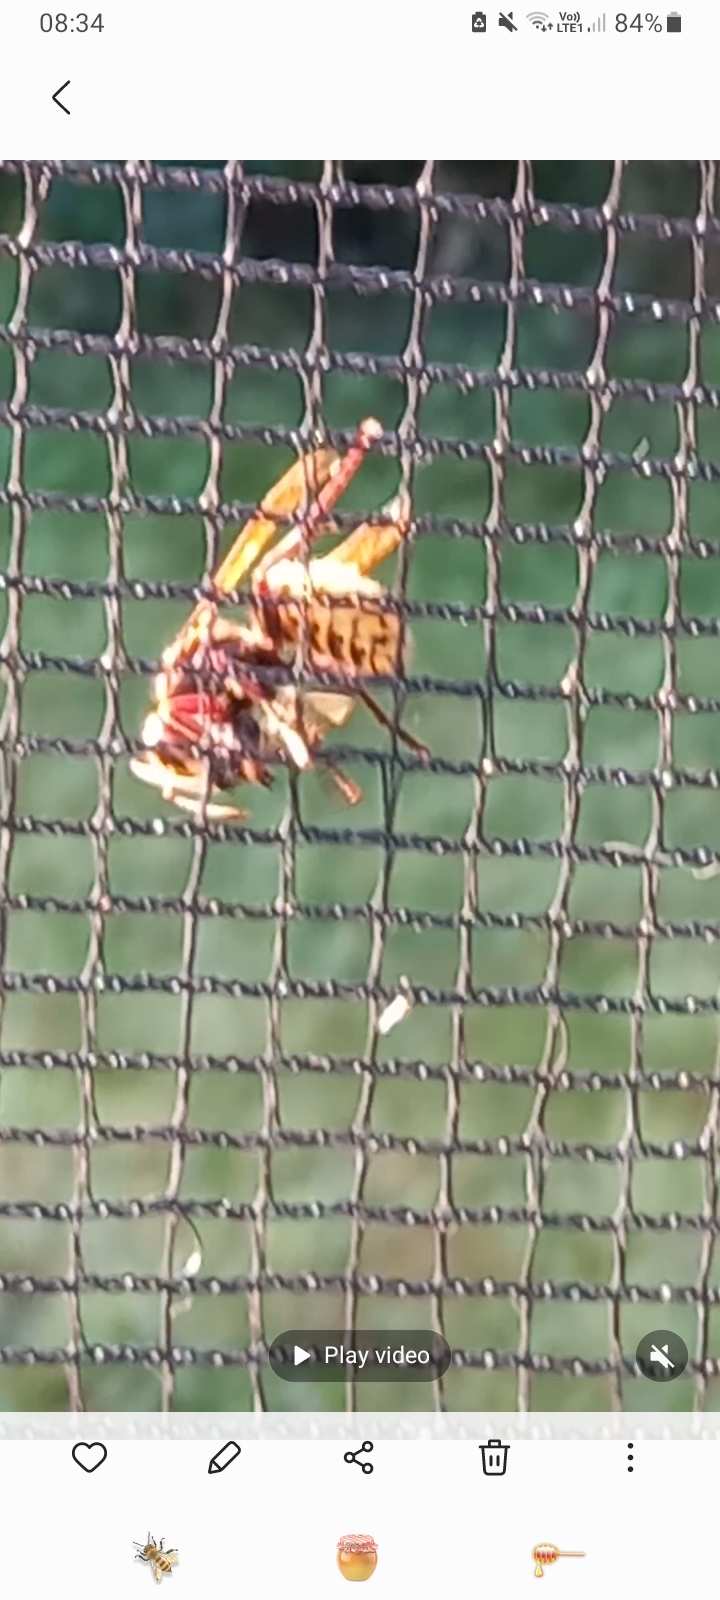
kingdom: Animalia
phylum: Arthropoda
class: Insecta
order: Hymenoptera
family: Vespidae
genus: Vespa
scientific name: Vespa crabro
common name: Hornet
